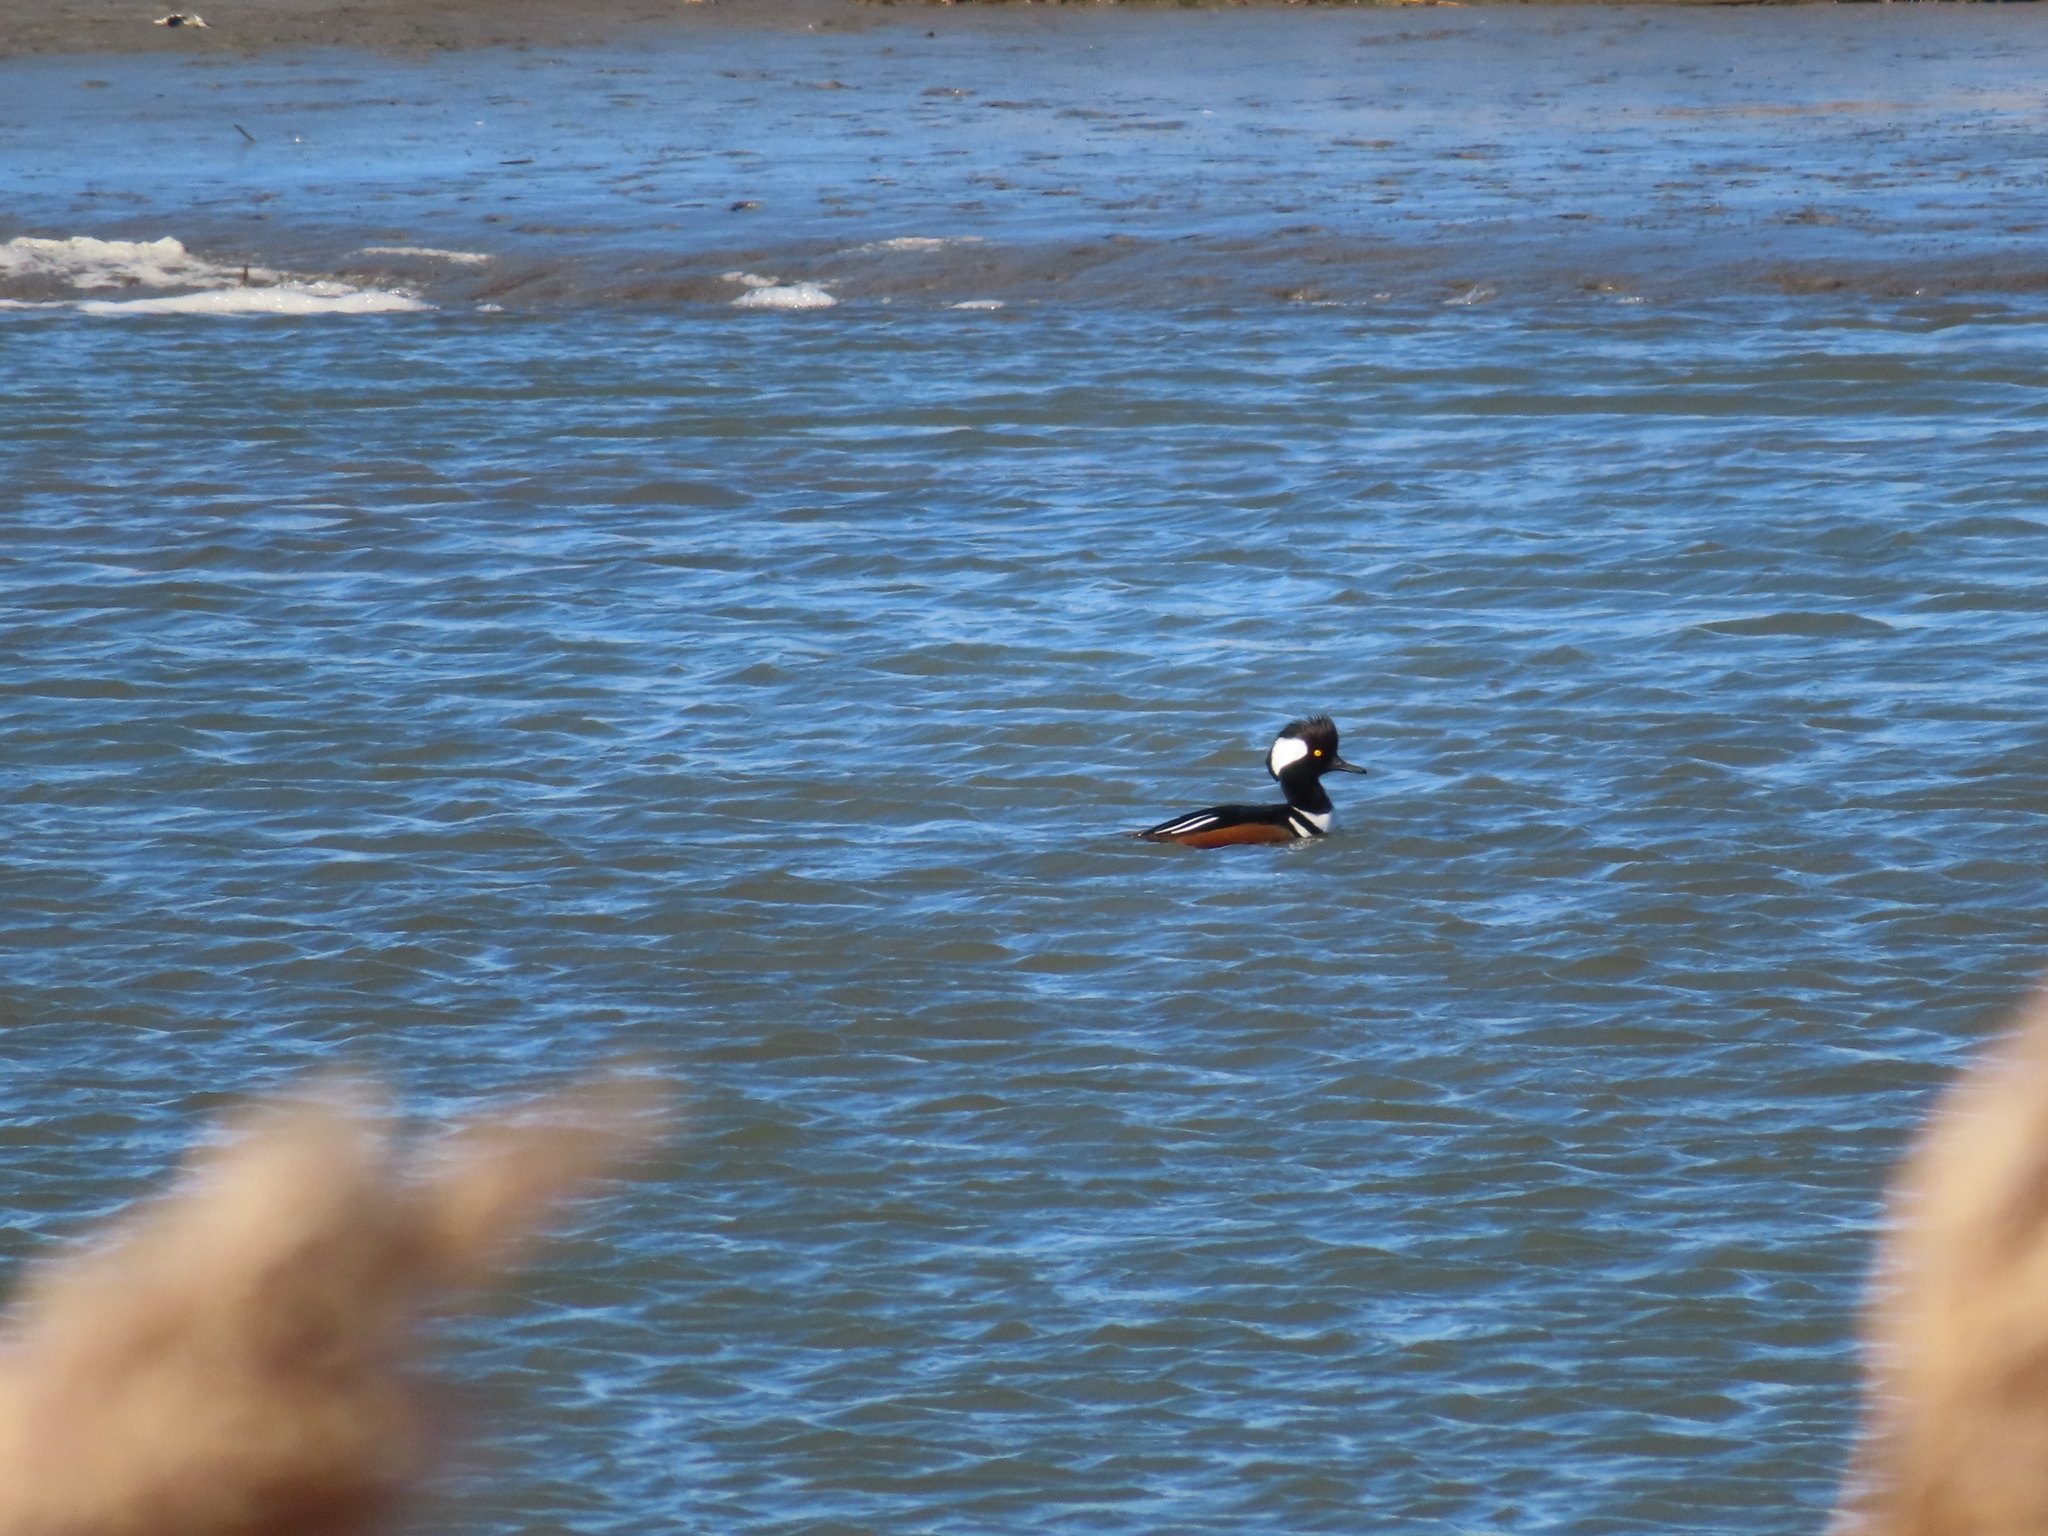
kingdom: Animalia
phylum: Chordata
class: Aves
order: Anseriformes
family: Anatidae
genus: Lophodytes
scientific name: Lophodytes cucullatus
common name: Hooded merganser
